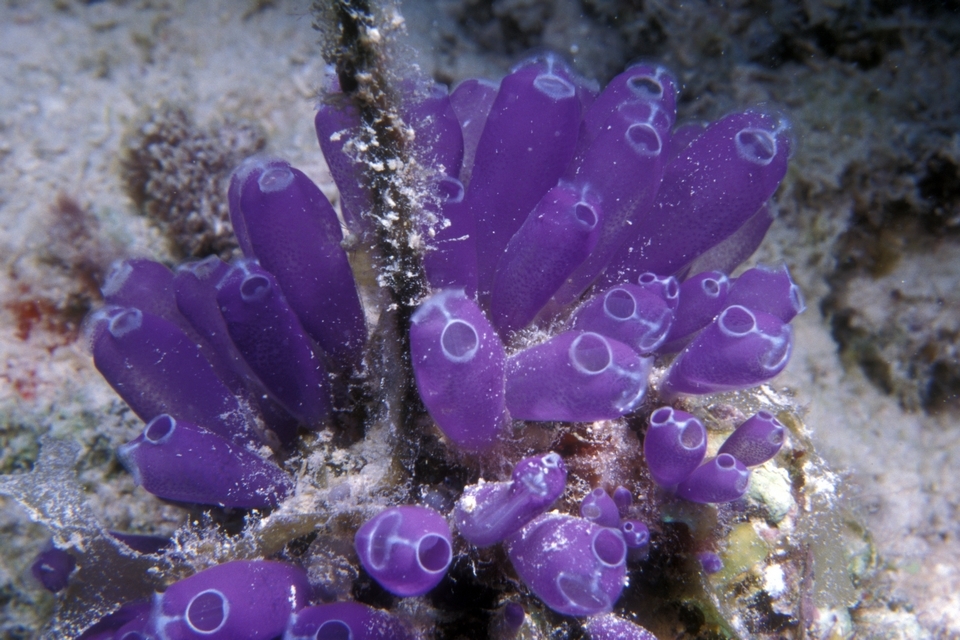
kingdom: Animalia
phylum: Chordata
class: Ascidiacea
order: Aplousobranchia
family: Clavelinidae
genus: Clavelina
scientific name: Clavelina puertosecensis
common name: Blue bell tunicate
